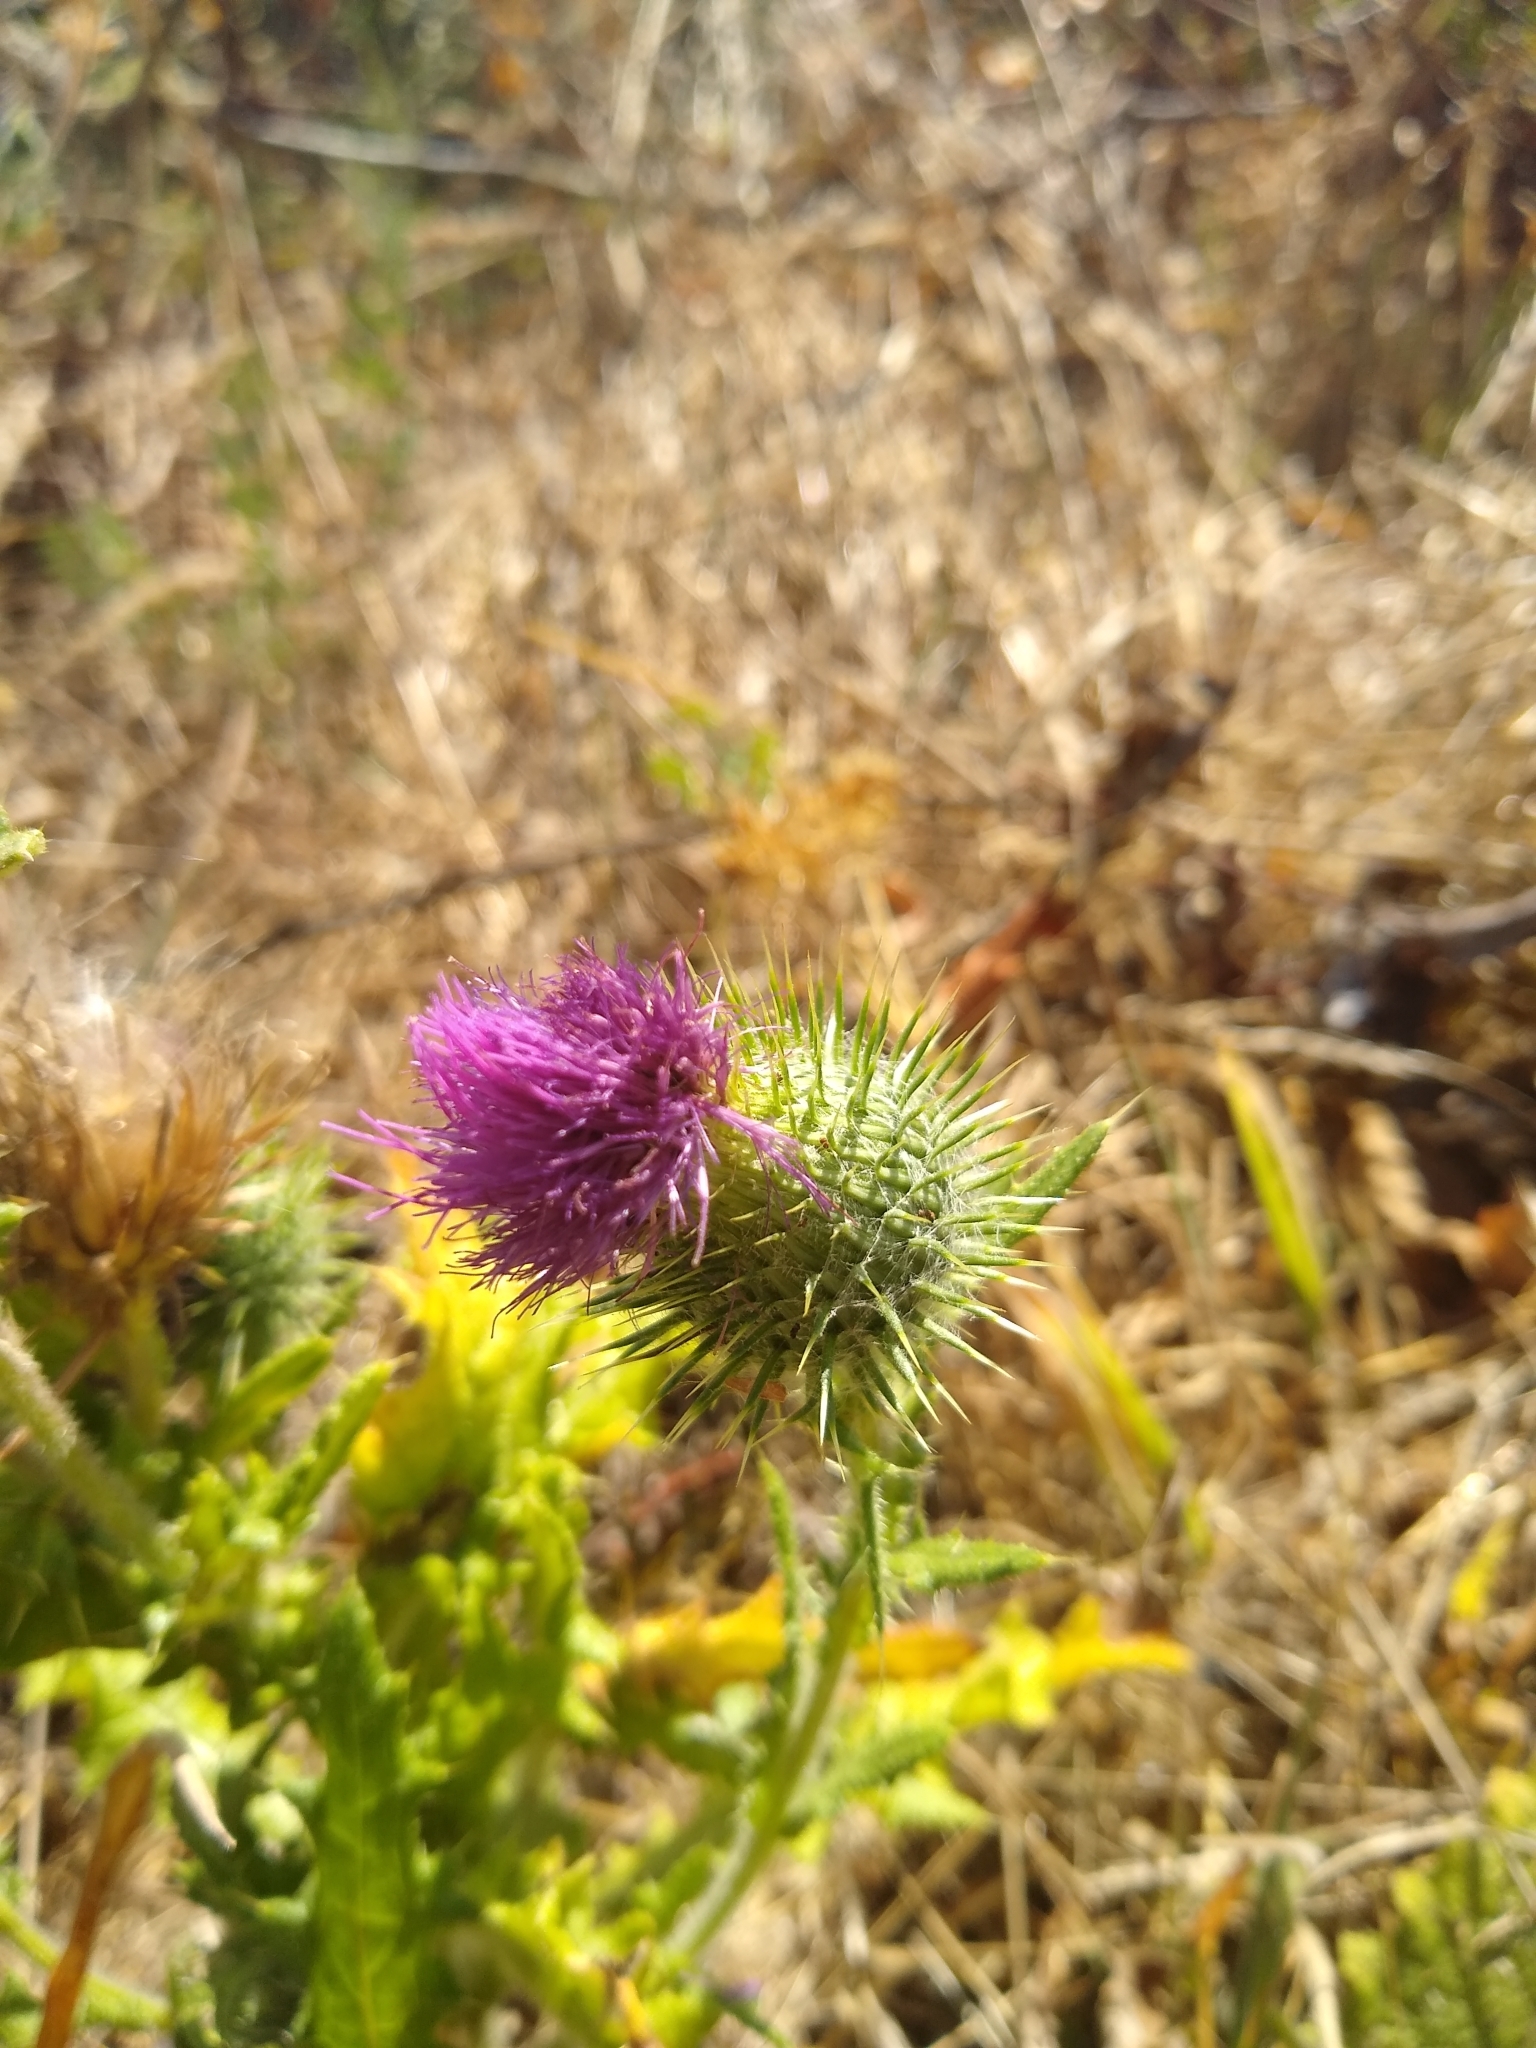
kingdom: Plantae
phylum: Tracheophyta
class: Magnoliopsida
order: Asterales
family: Asteraceae
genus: Cirsium
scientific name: Cirsium vulgare
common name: Bull thistle
